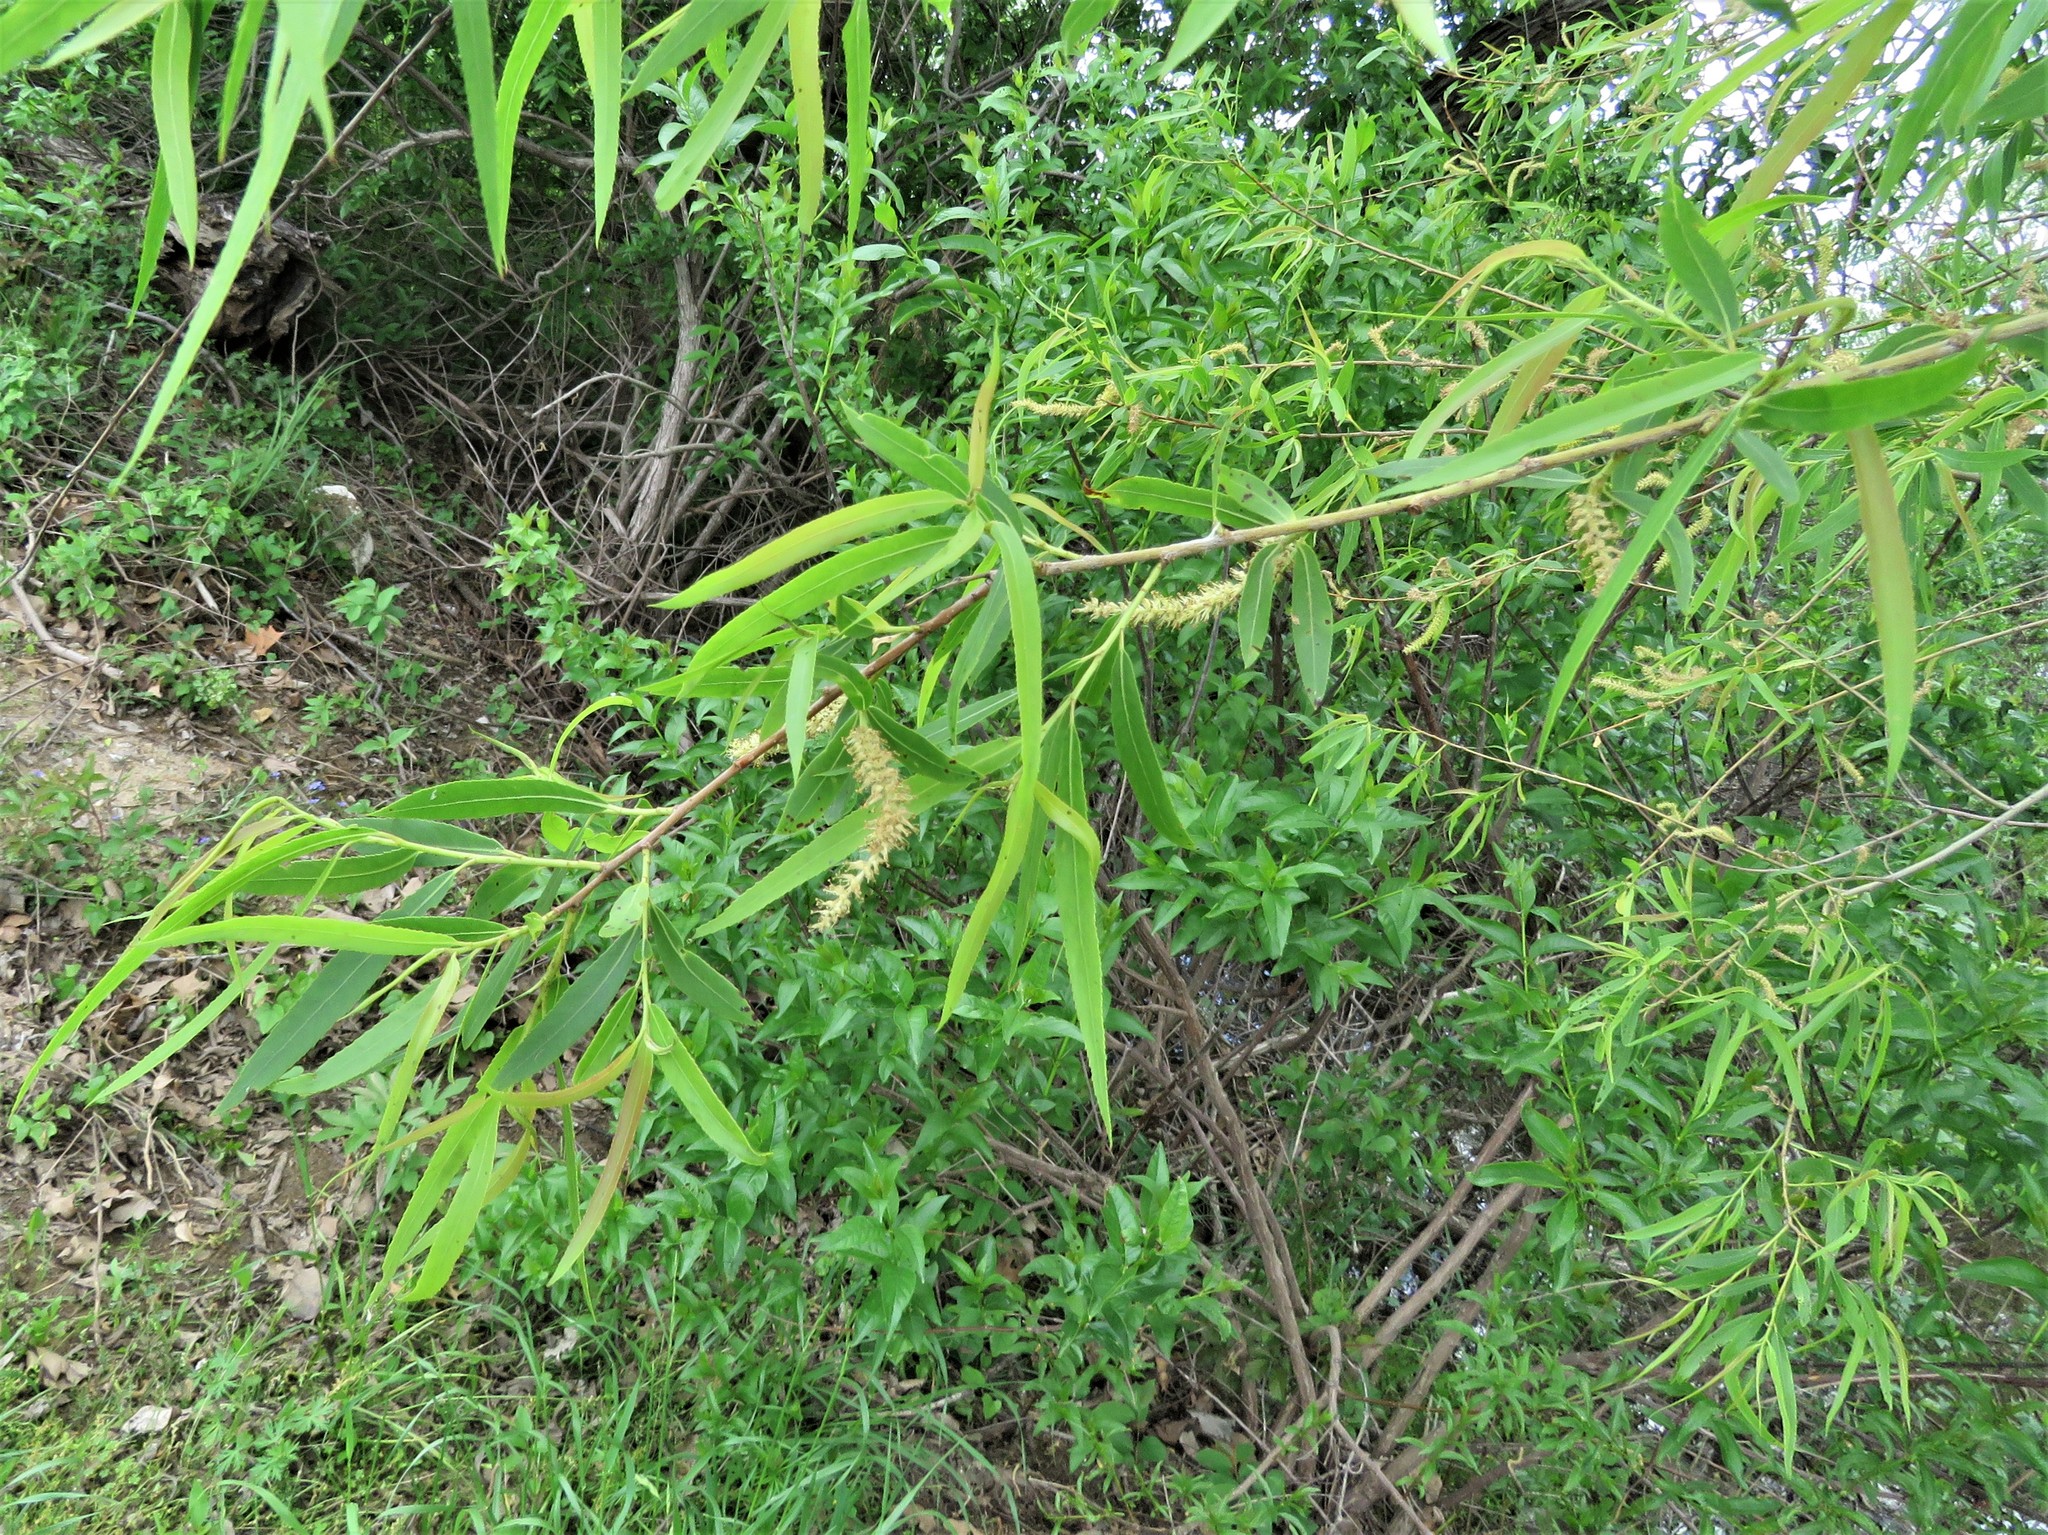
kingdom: Plantae
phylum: Tracheophyta
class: Magnoliopsida
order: Malpighiales
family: Salicaceae
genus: Salix
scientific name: Salix nigra
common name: Black willow
